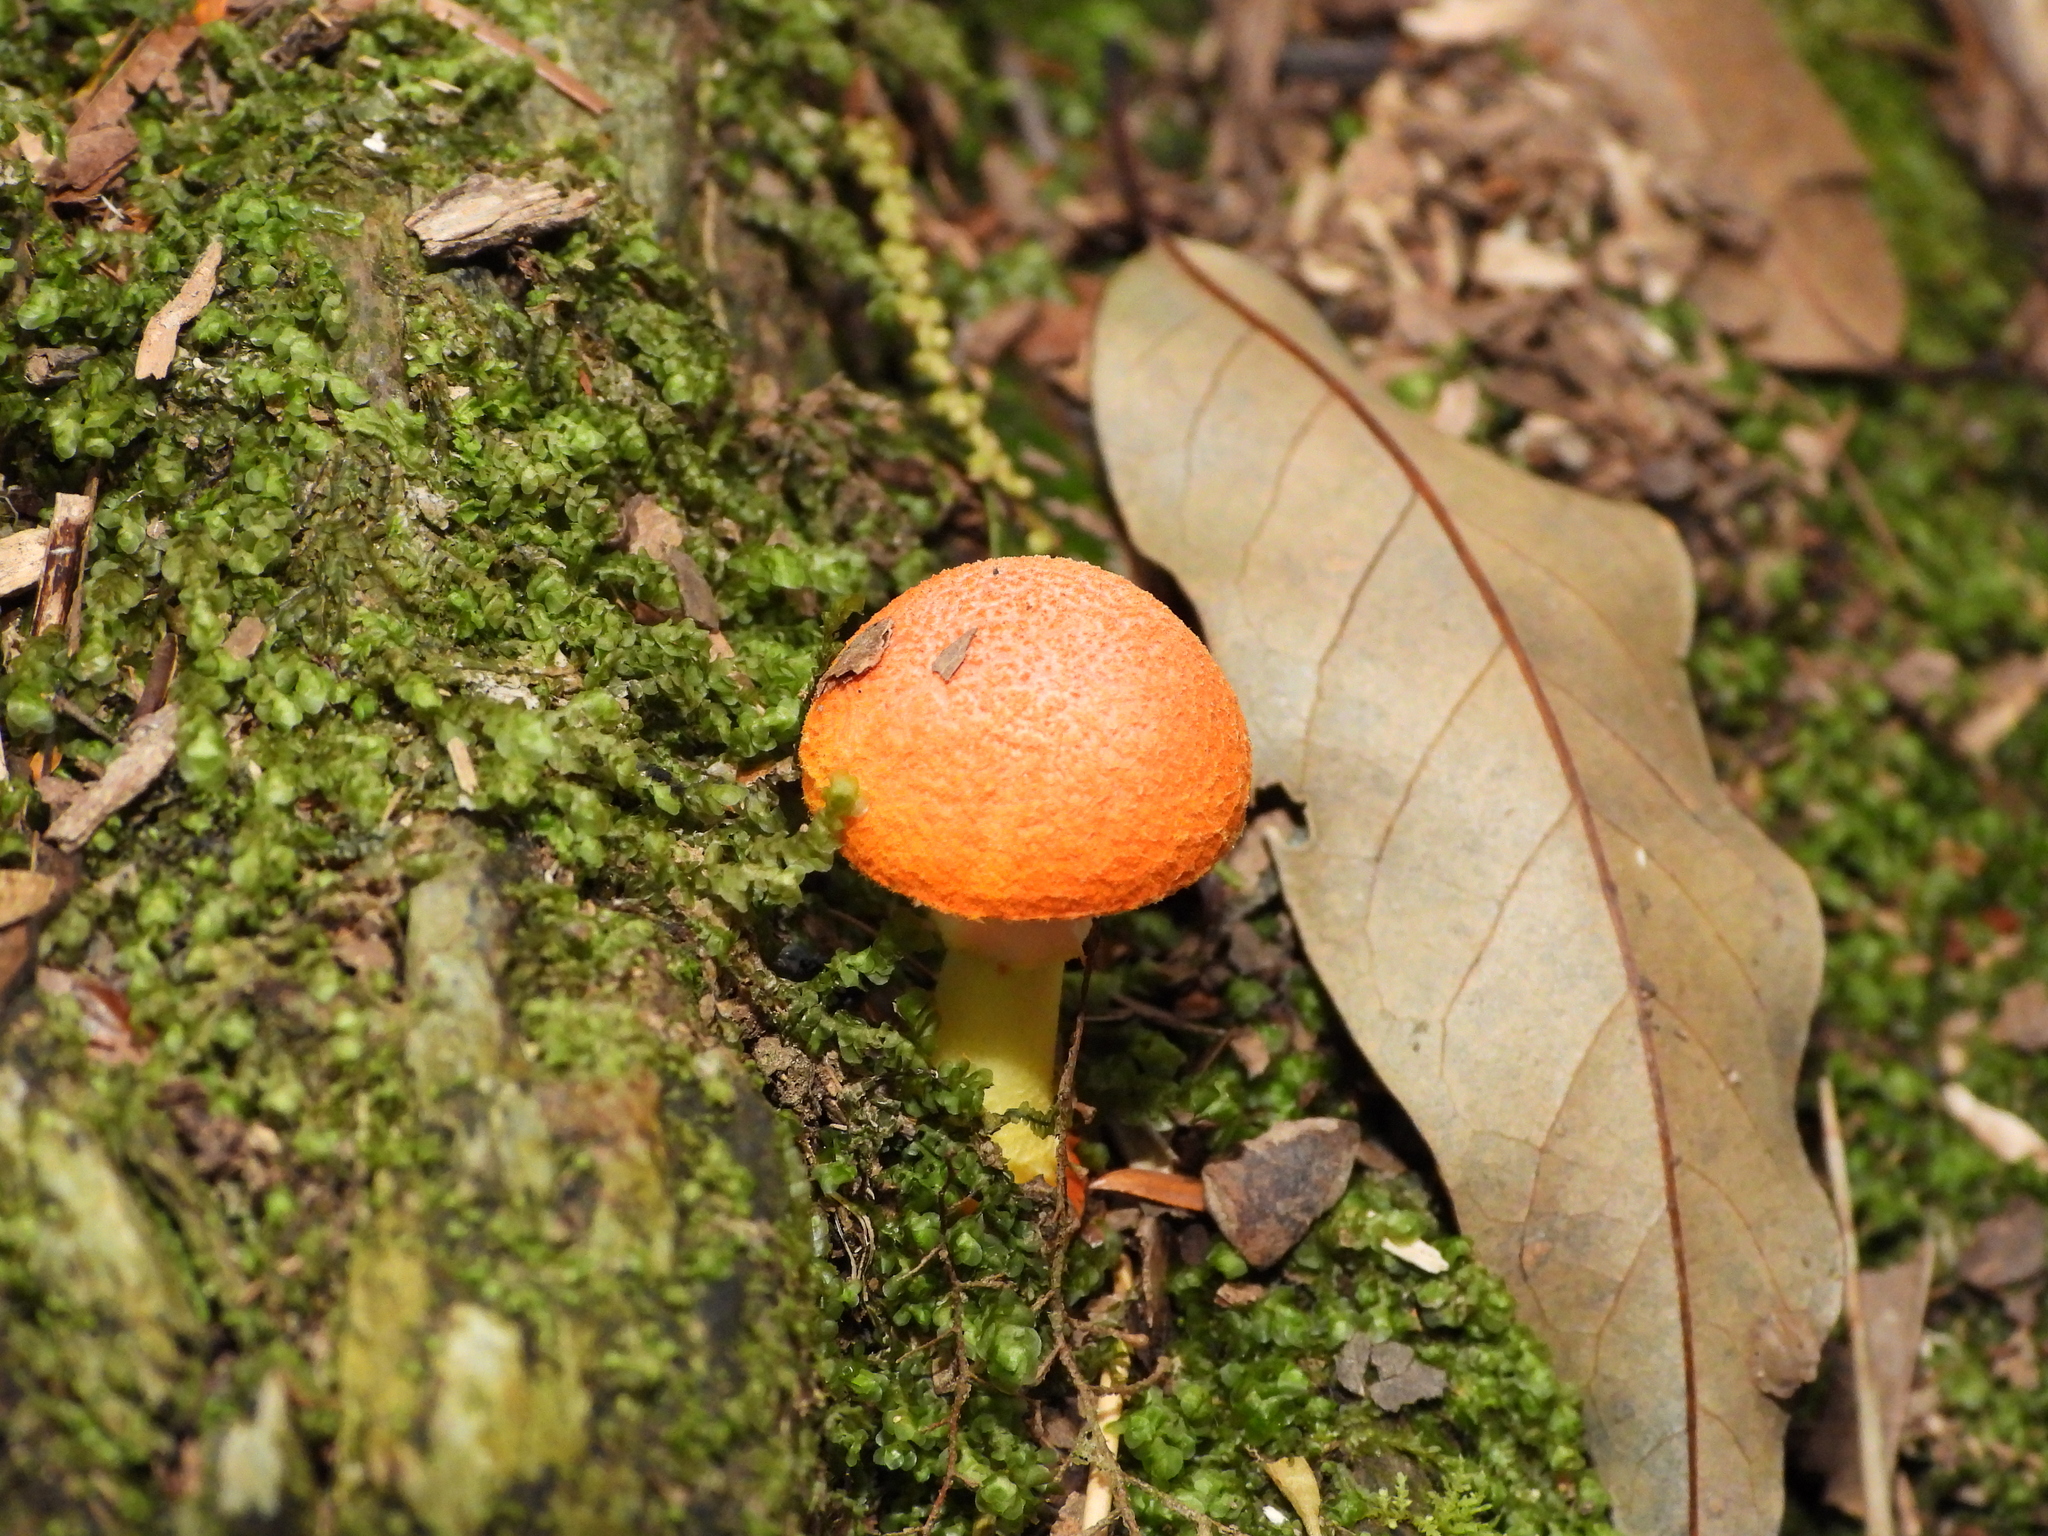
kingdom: Fungi
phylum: Basidiomycota
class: Agaricomycetes
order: Agaricales
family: Amanitaceae
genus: Amanita
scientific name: Amanita rubrovolvata
